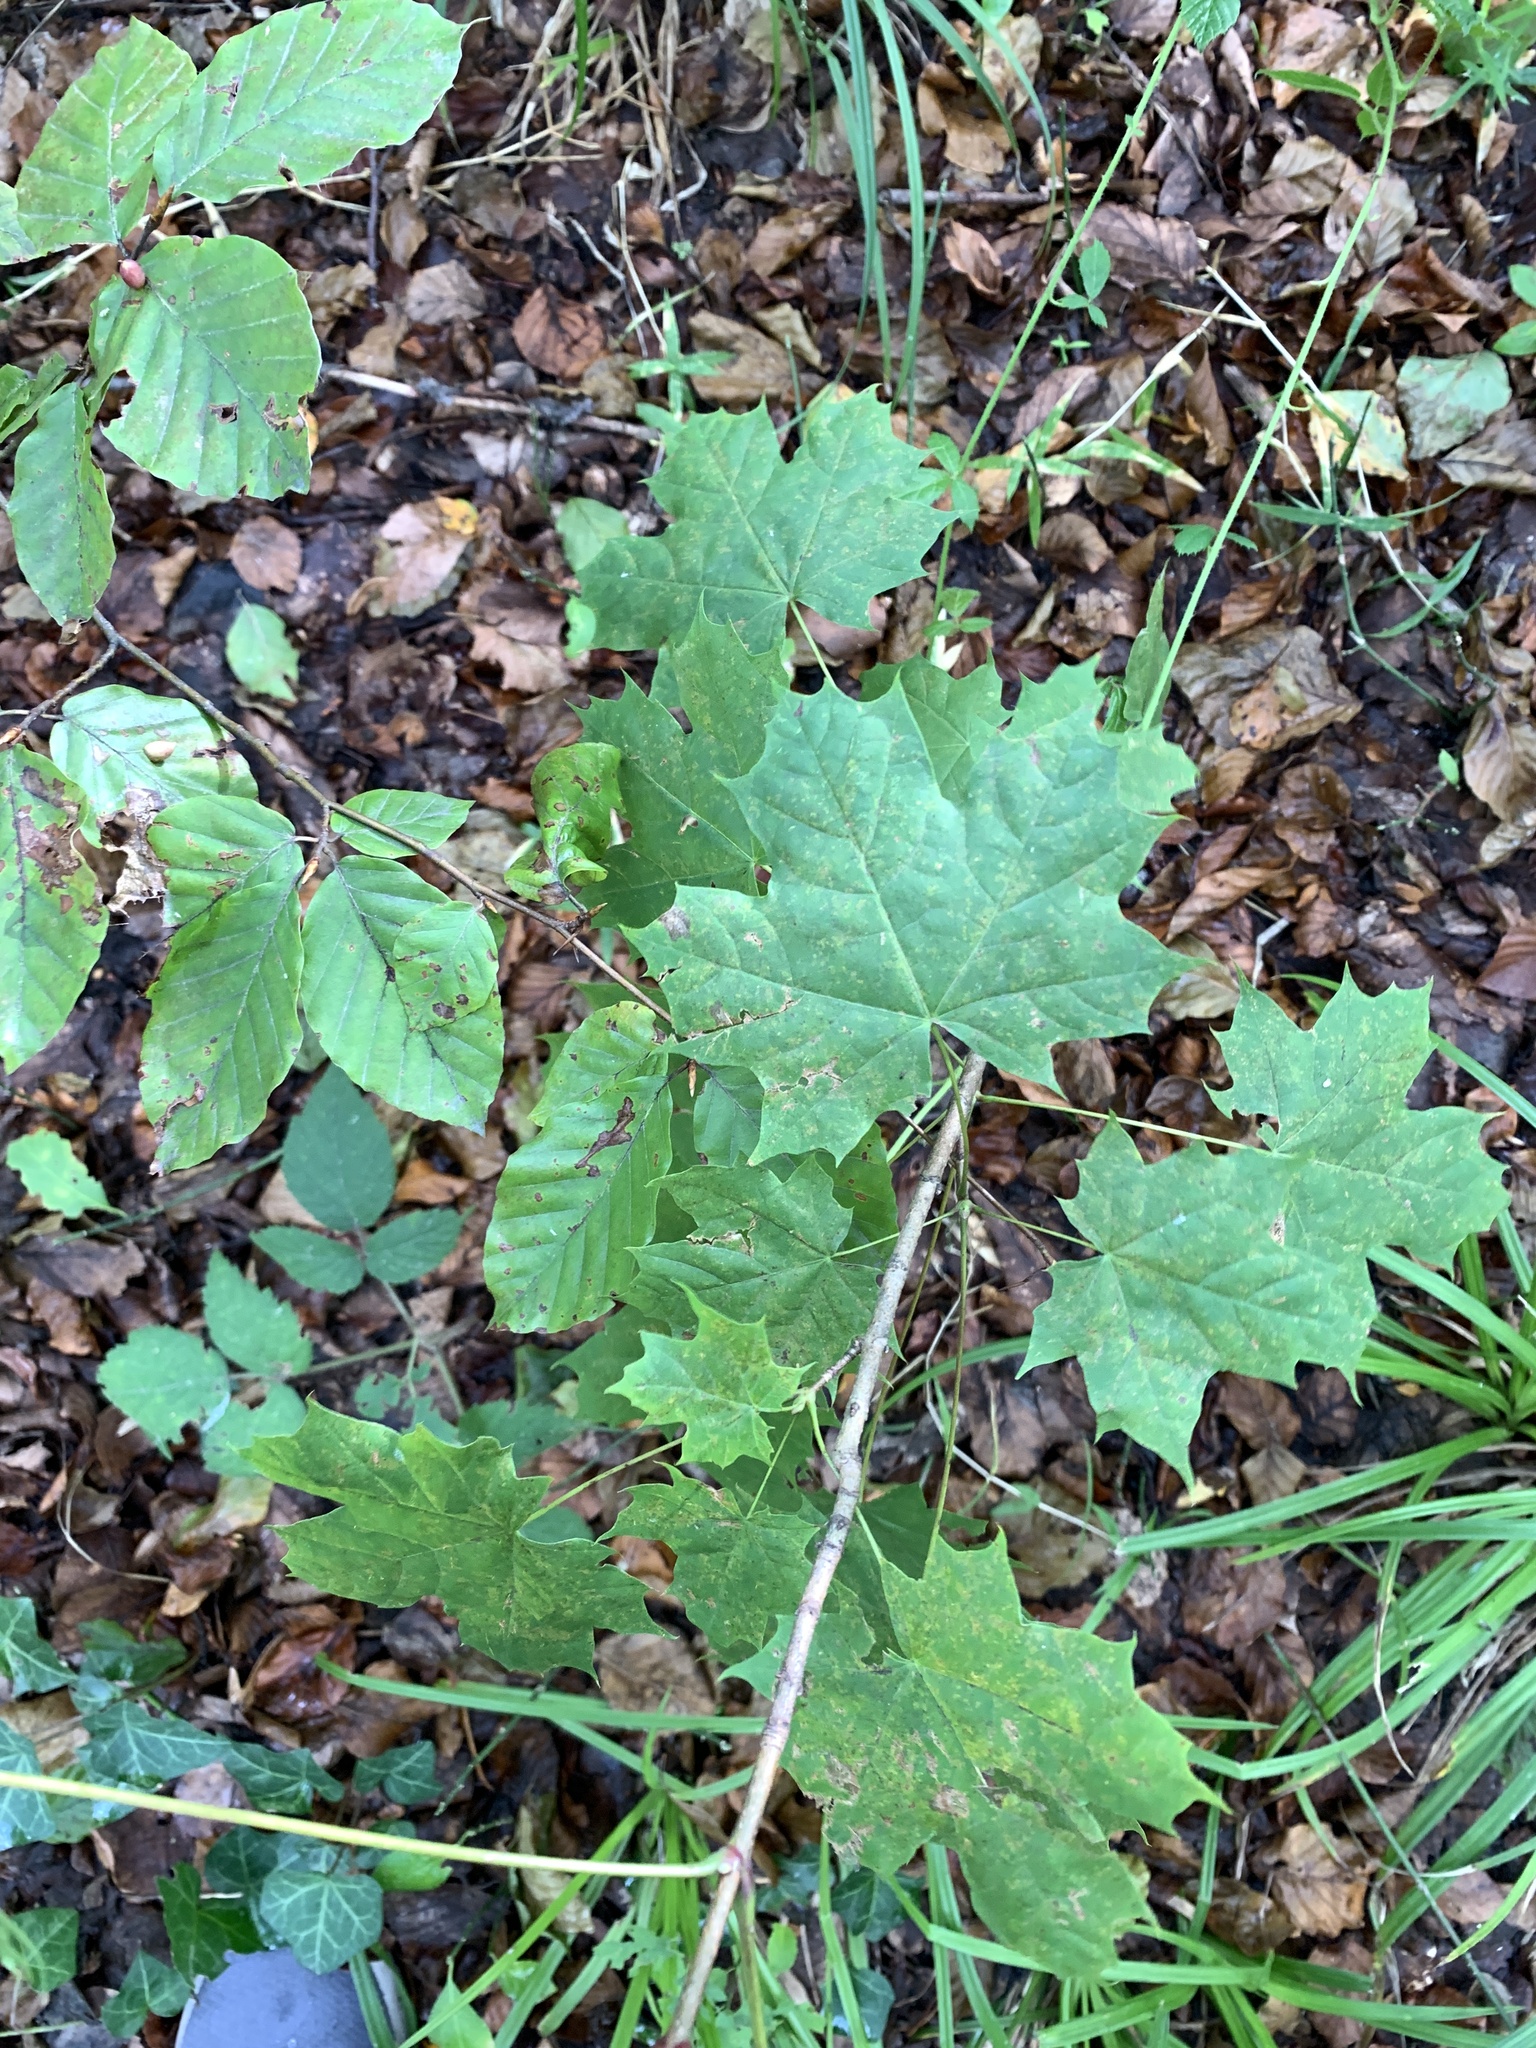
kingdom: Plantae
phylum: Tracheophyta
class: Magnoliopsida
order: Sapindales
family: Sapindaceae
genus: Acer
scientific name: Acer platanoides
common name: Norway maple
